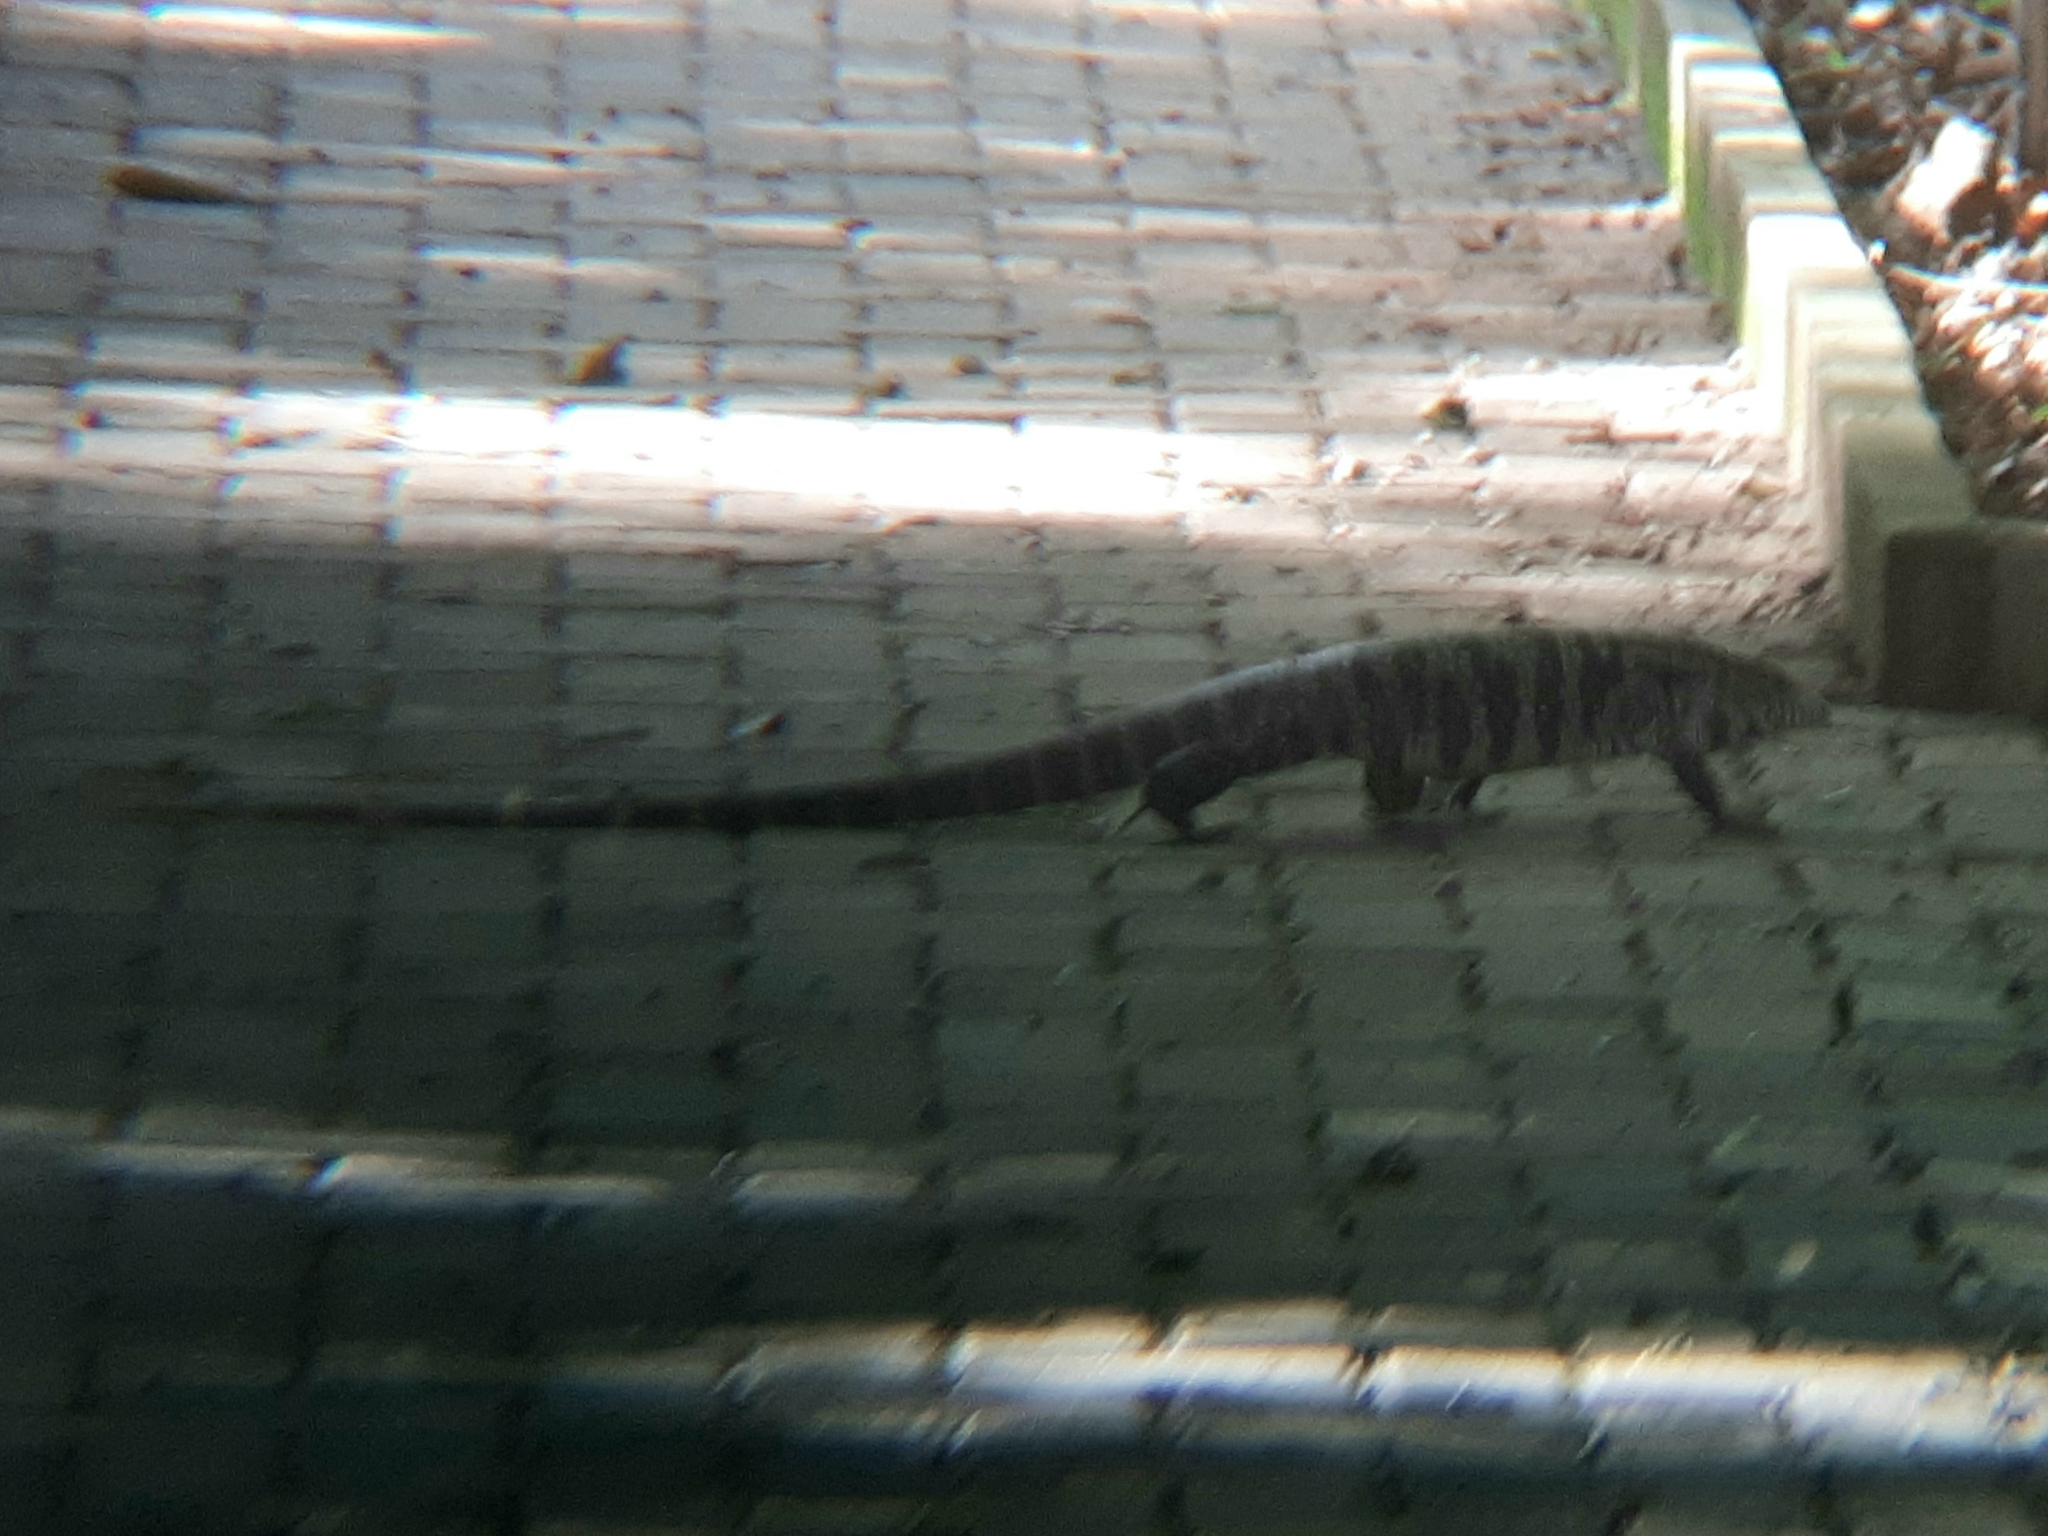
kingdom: Animalia
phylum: Chordata
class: Squamata
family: Teiidae
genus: Salvator
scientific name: Salvator merianae
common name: Argentine black and white tegu
